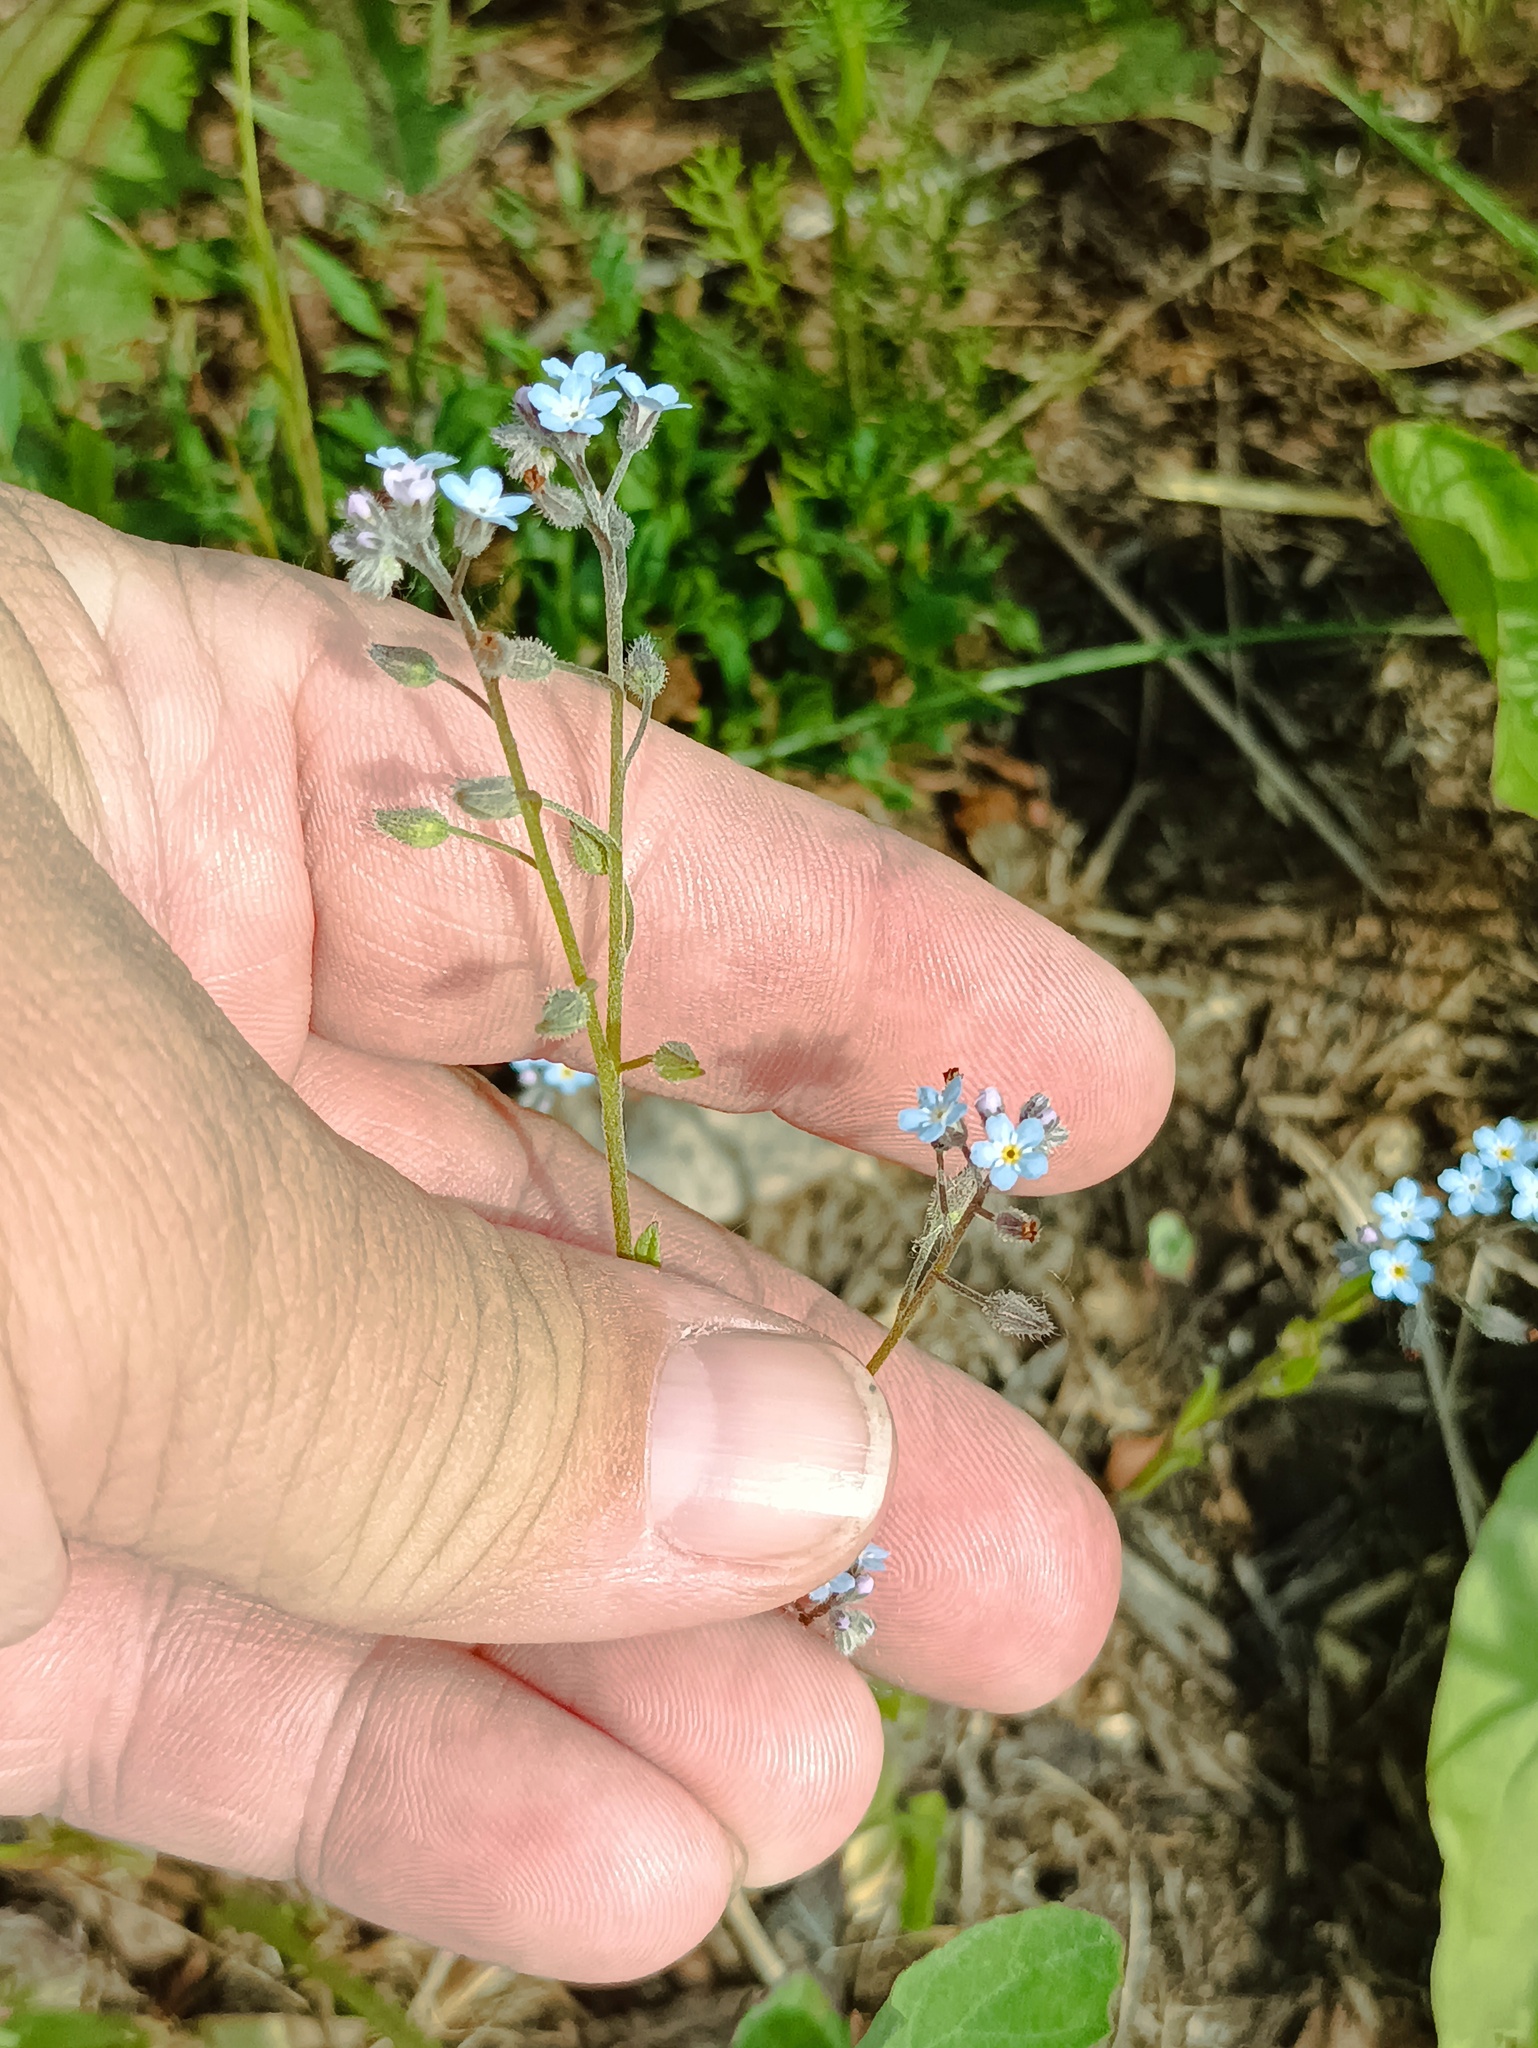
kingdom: Plantae
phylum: Tracheophyta
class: Magnoliopsida
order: Boraginales
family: Boraginaceae
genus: Myosotis
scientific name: Myosotis arvensis
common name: Field forget-me-not
